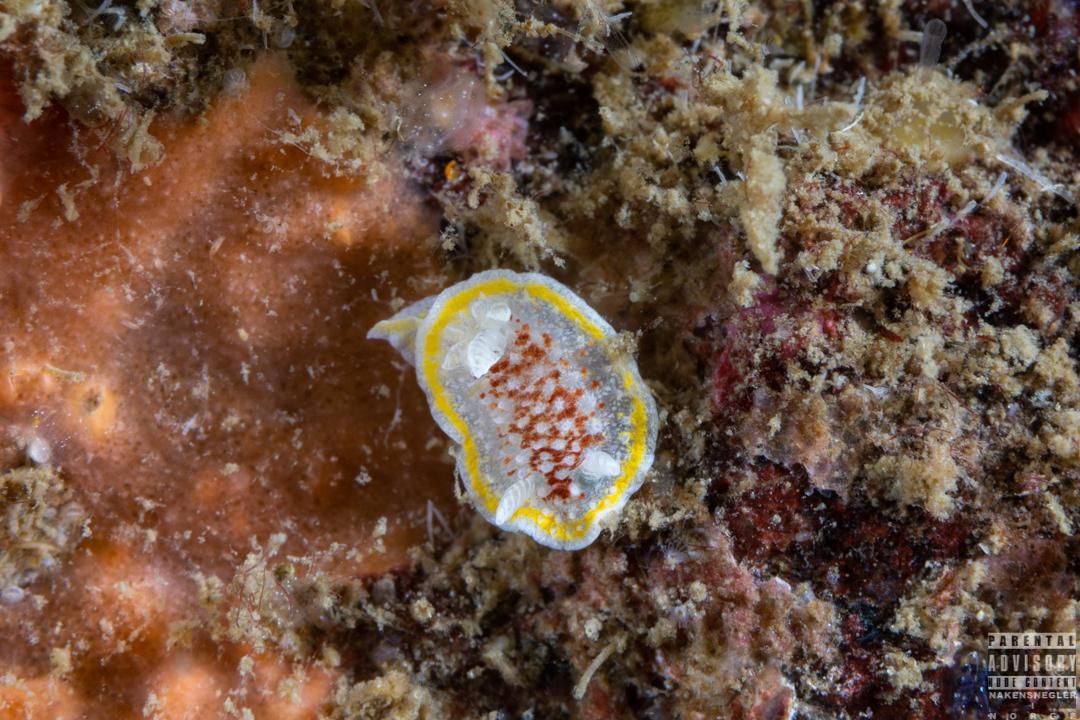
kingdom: Animalia
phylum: Mollusca
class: Gastropoda
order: Nudibranchia
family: Calycidorididae
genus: Diaphorodoris
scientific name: Diaphorodoris luteocincta
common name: Fried egg nudibranch
